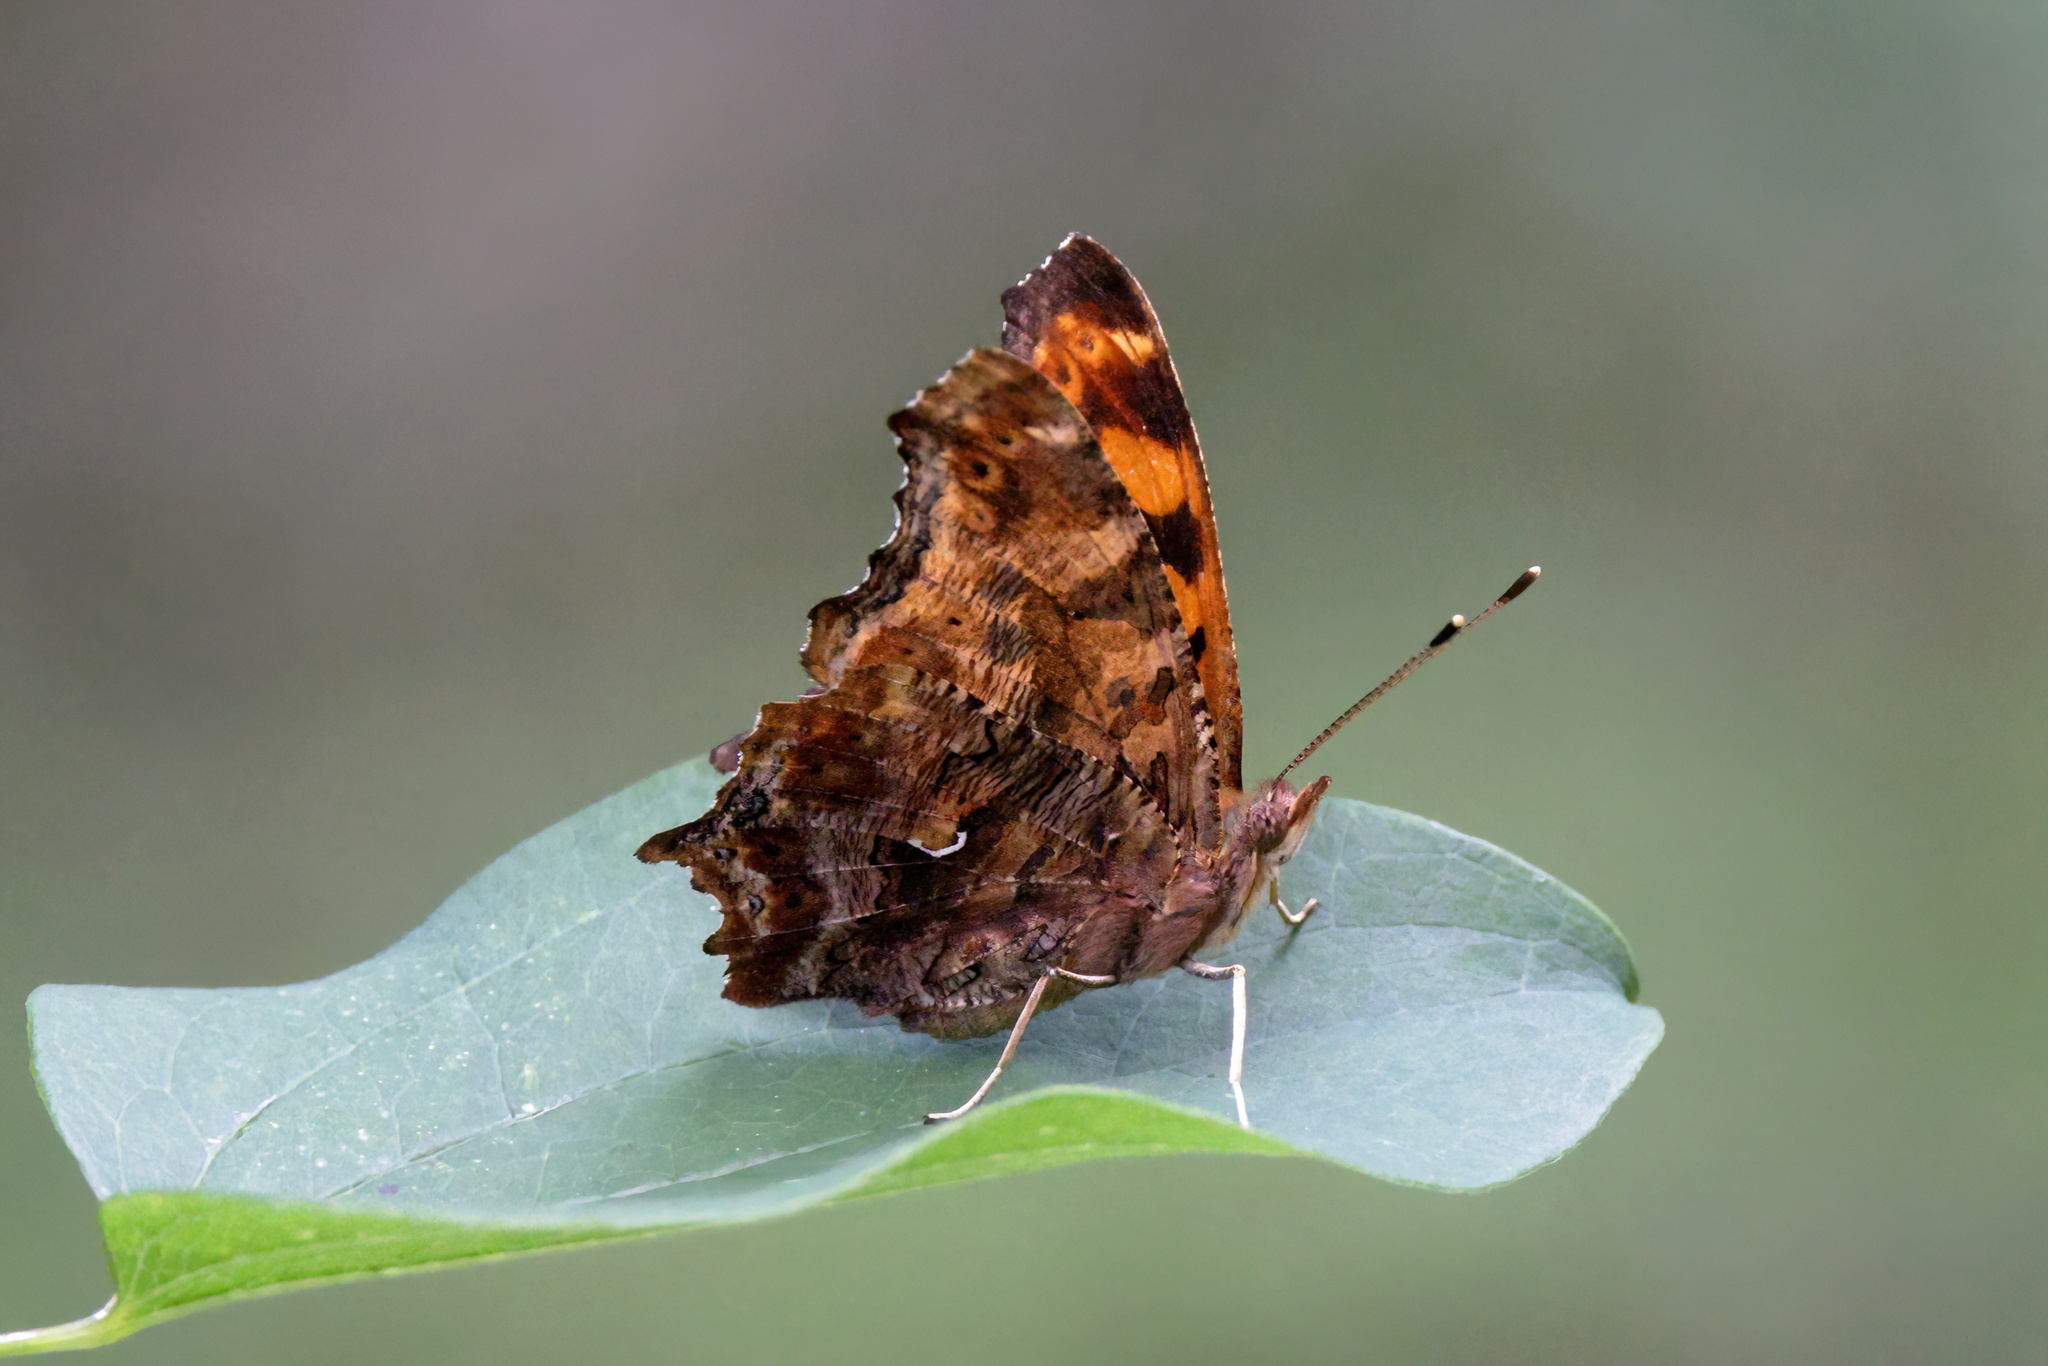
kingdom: Animalia
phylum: Arthropoda
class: Insecta
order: Lepidoptera
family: Nymphalidae
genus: Polygonia
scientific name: Polygonia comma
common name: Eastern comma
